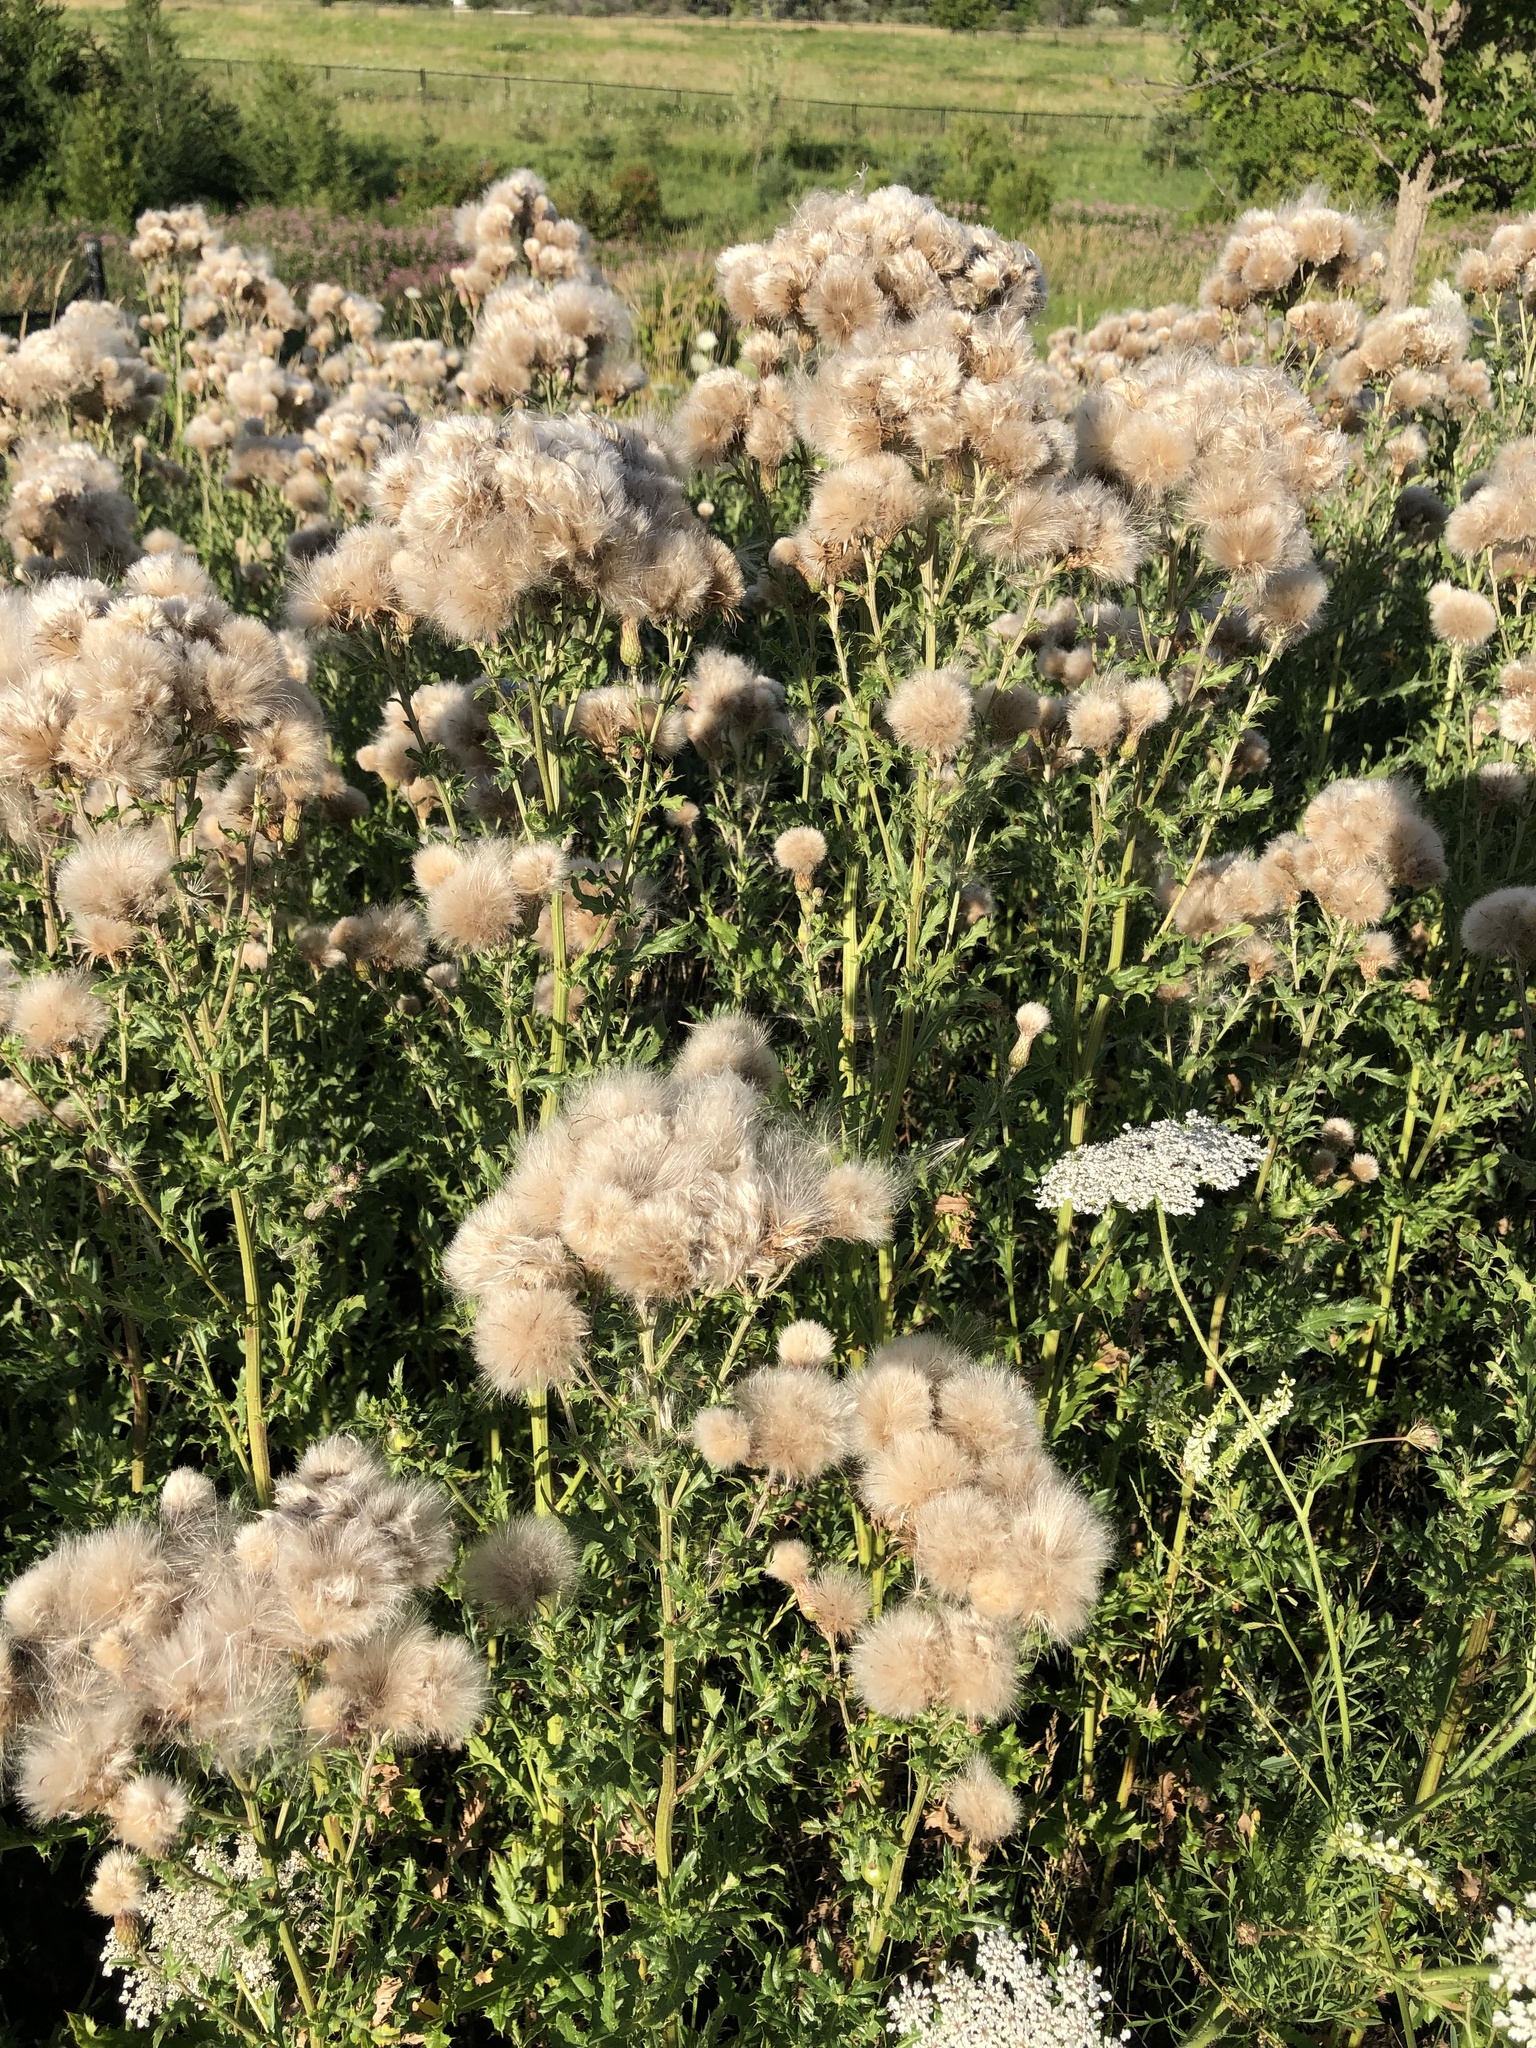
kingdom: Plantae
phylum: Tracheophyta
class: Magnoliopsida
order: Asterales
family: Asteraceae
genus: Cirsium
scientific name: Cirsium arvense
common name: Creeping thistle
